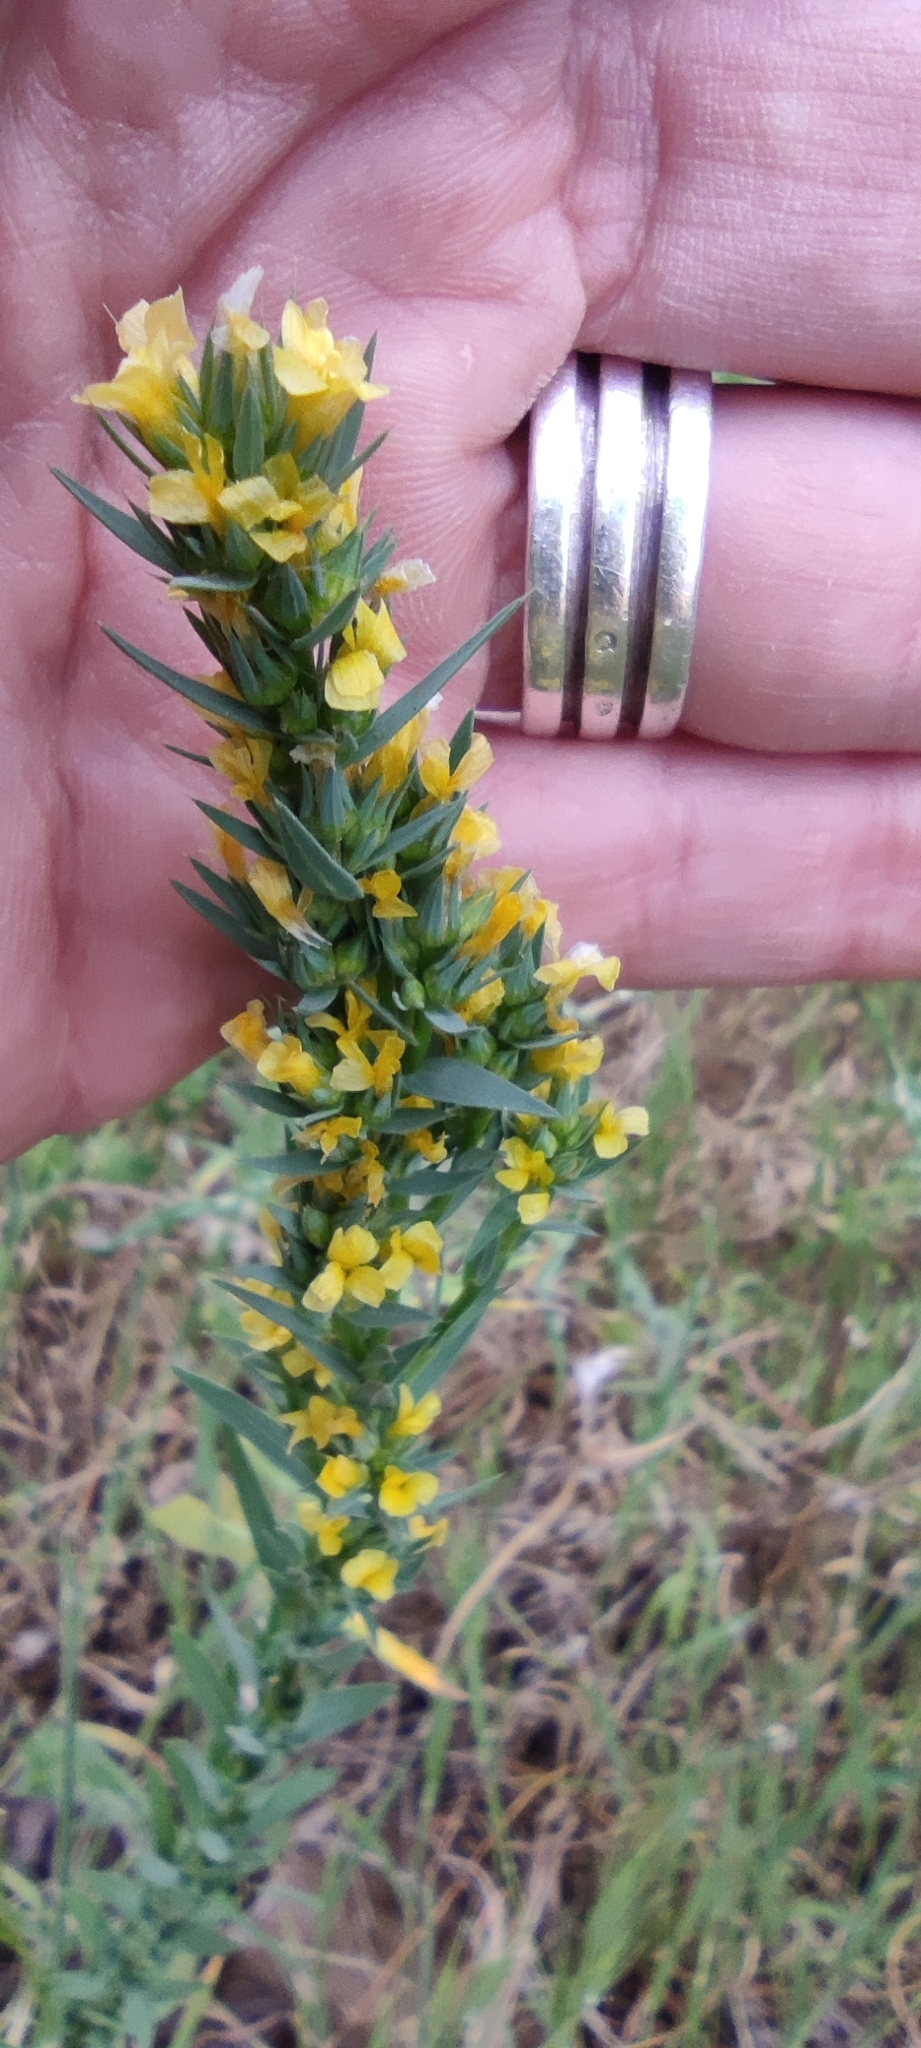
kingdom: Plantae
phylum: Tracheophyta
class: Magnoliopsida
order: Malpighiales
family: Linaceae
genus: Linum
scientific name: Linum strictum
